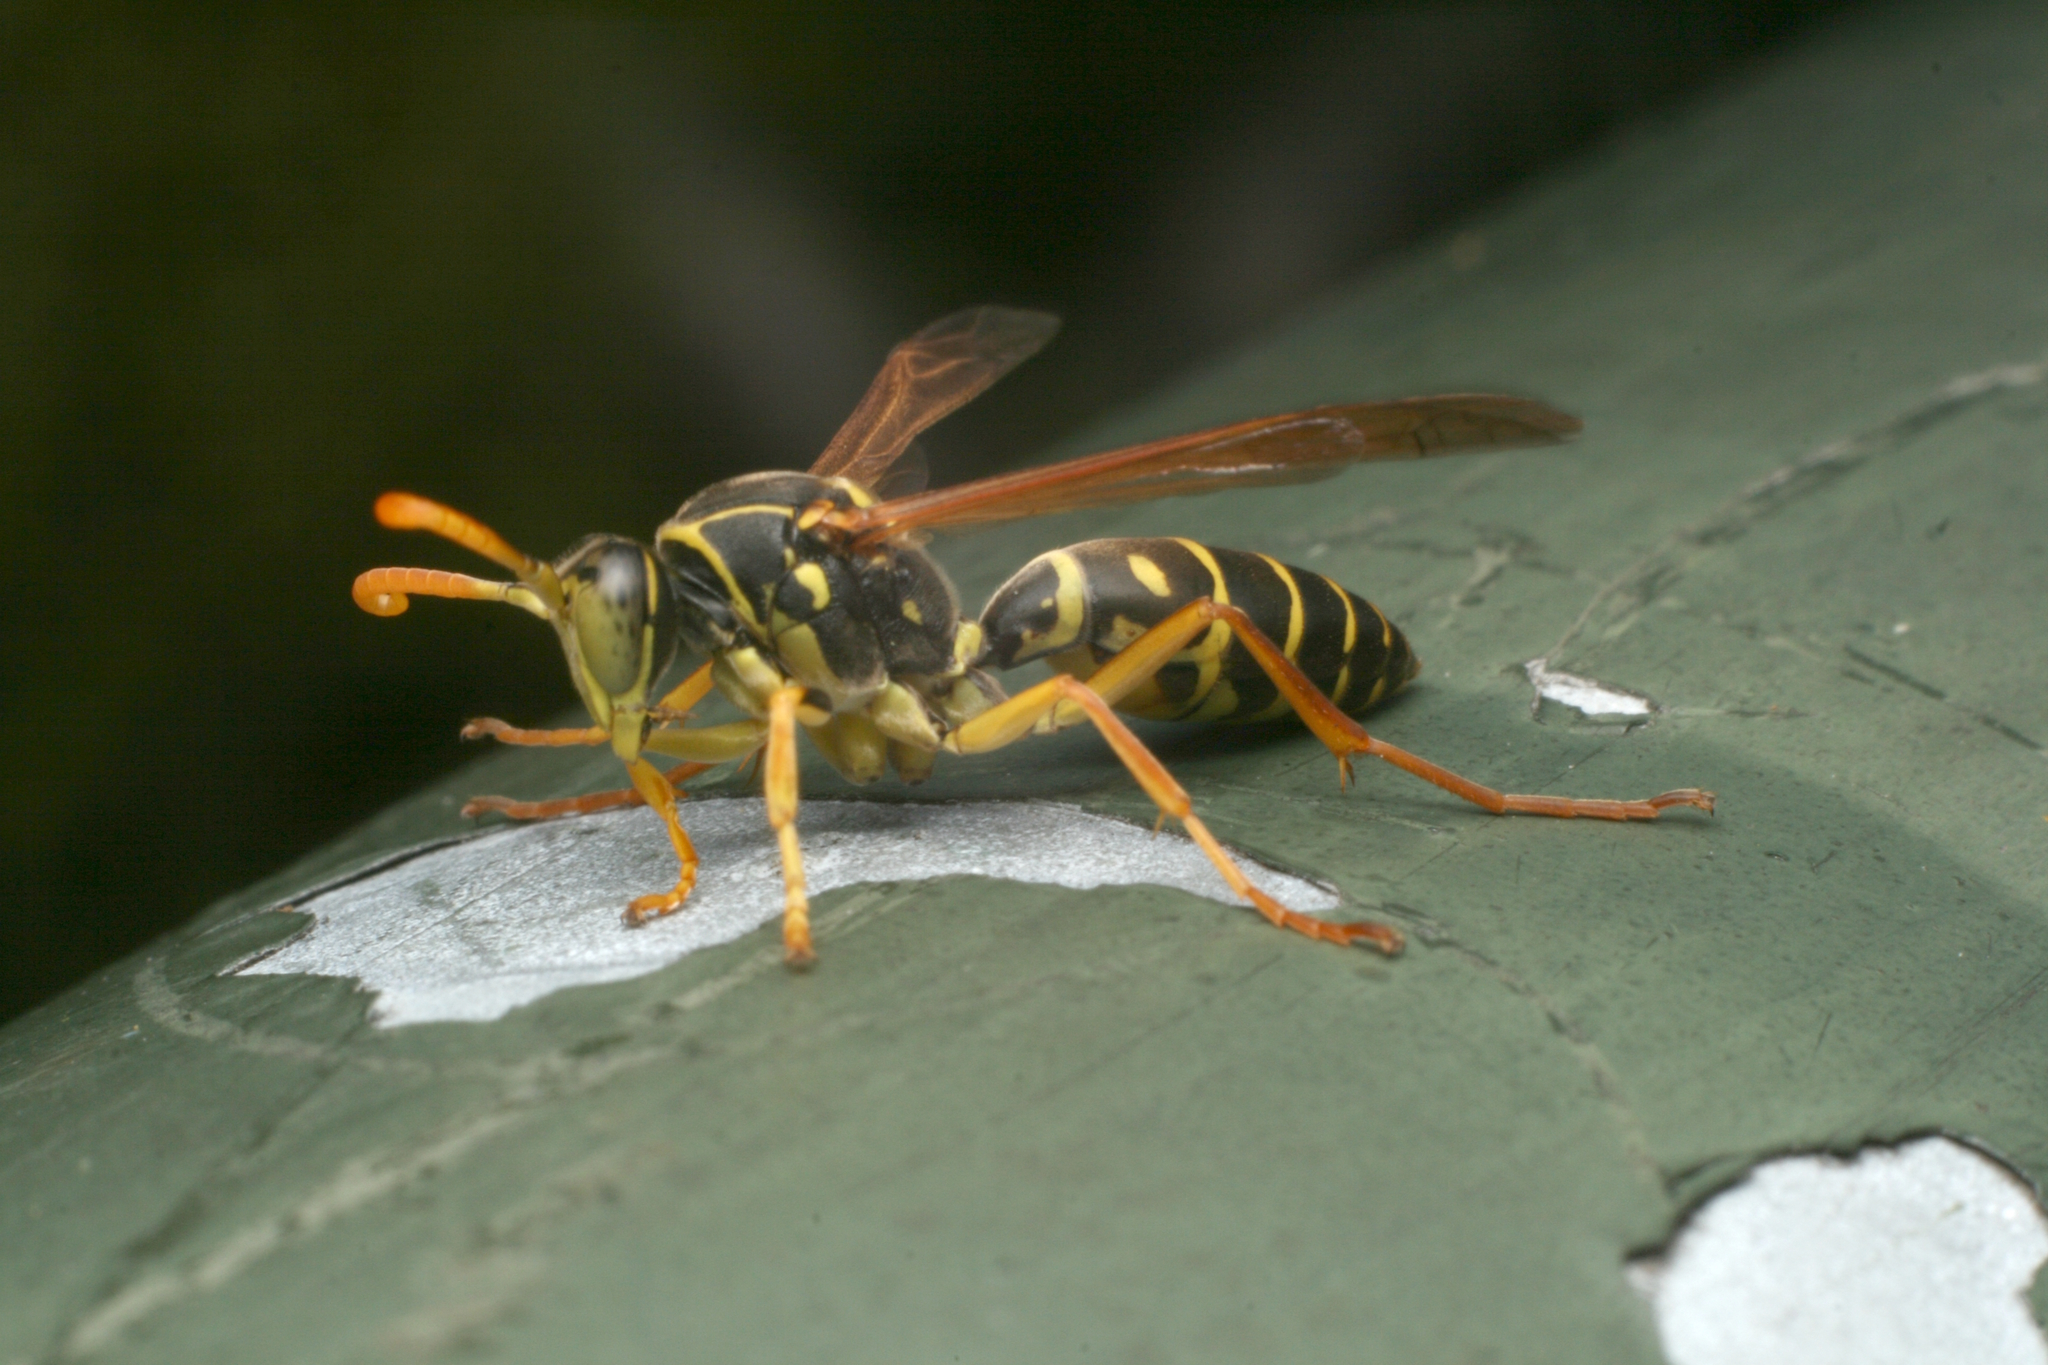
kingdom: Animalia
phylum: Arthropoda
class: Insecta
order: Hymenoptera
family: Eumenidae
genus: Polistes
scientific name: Polistes chinensis
